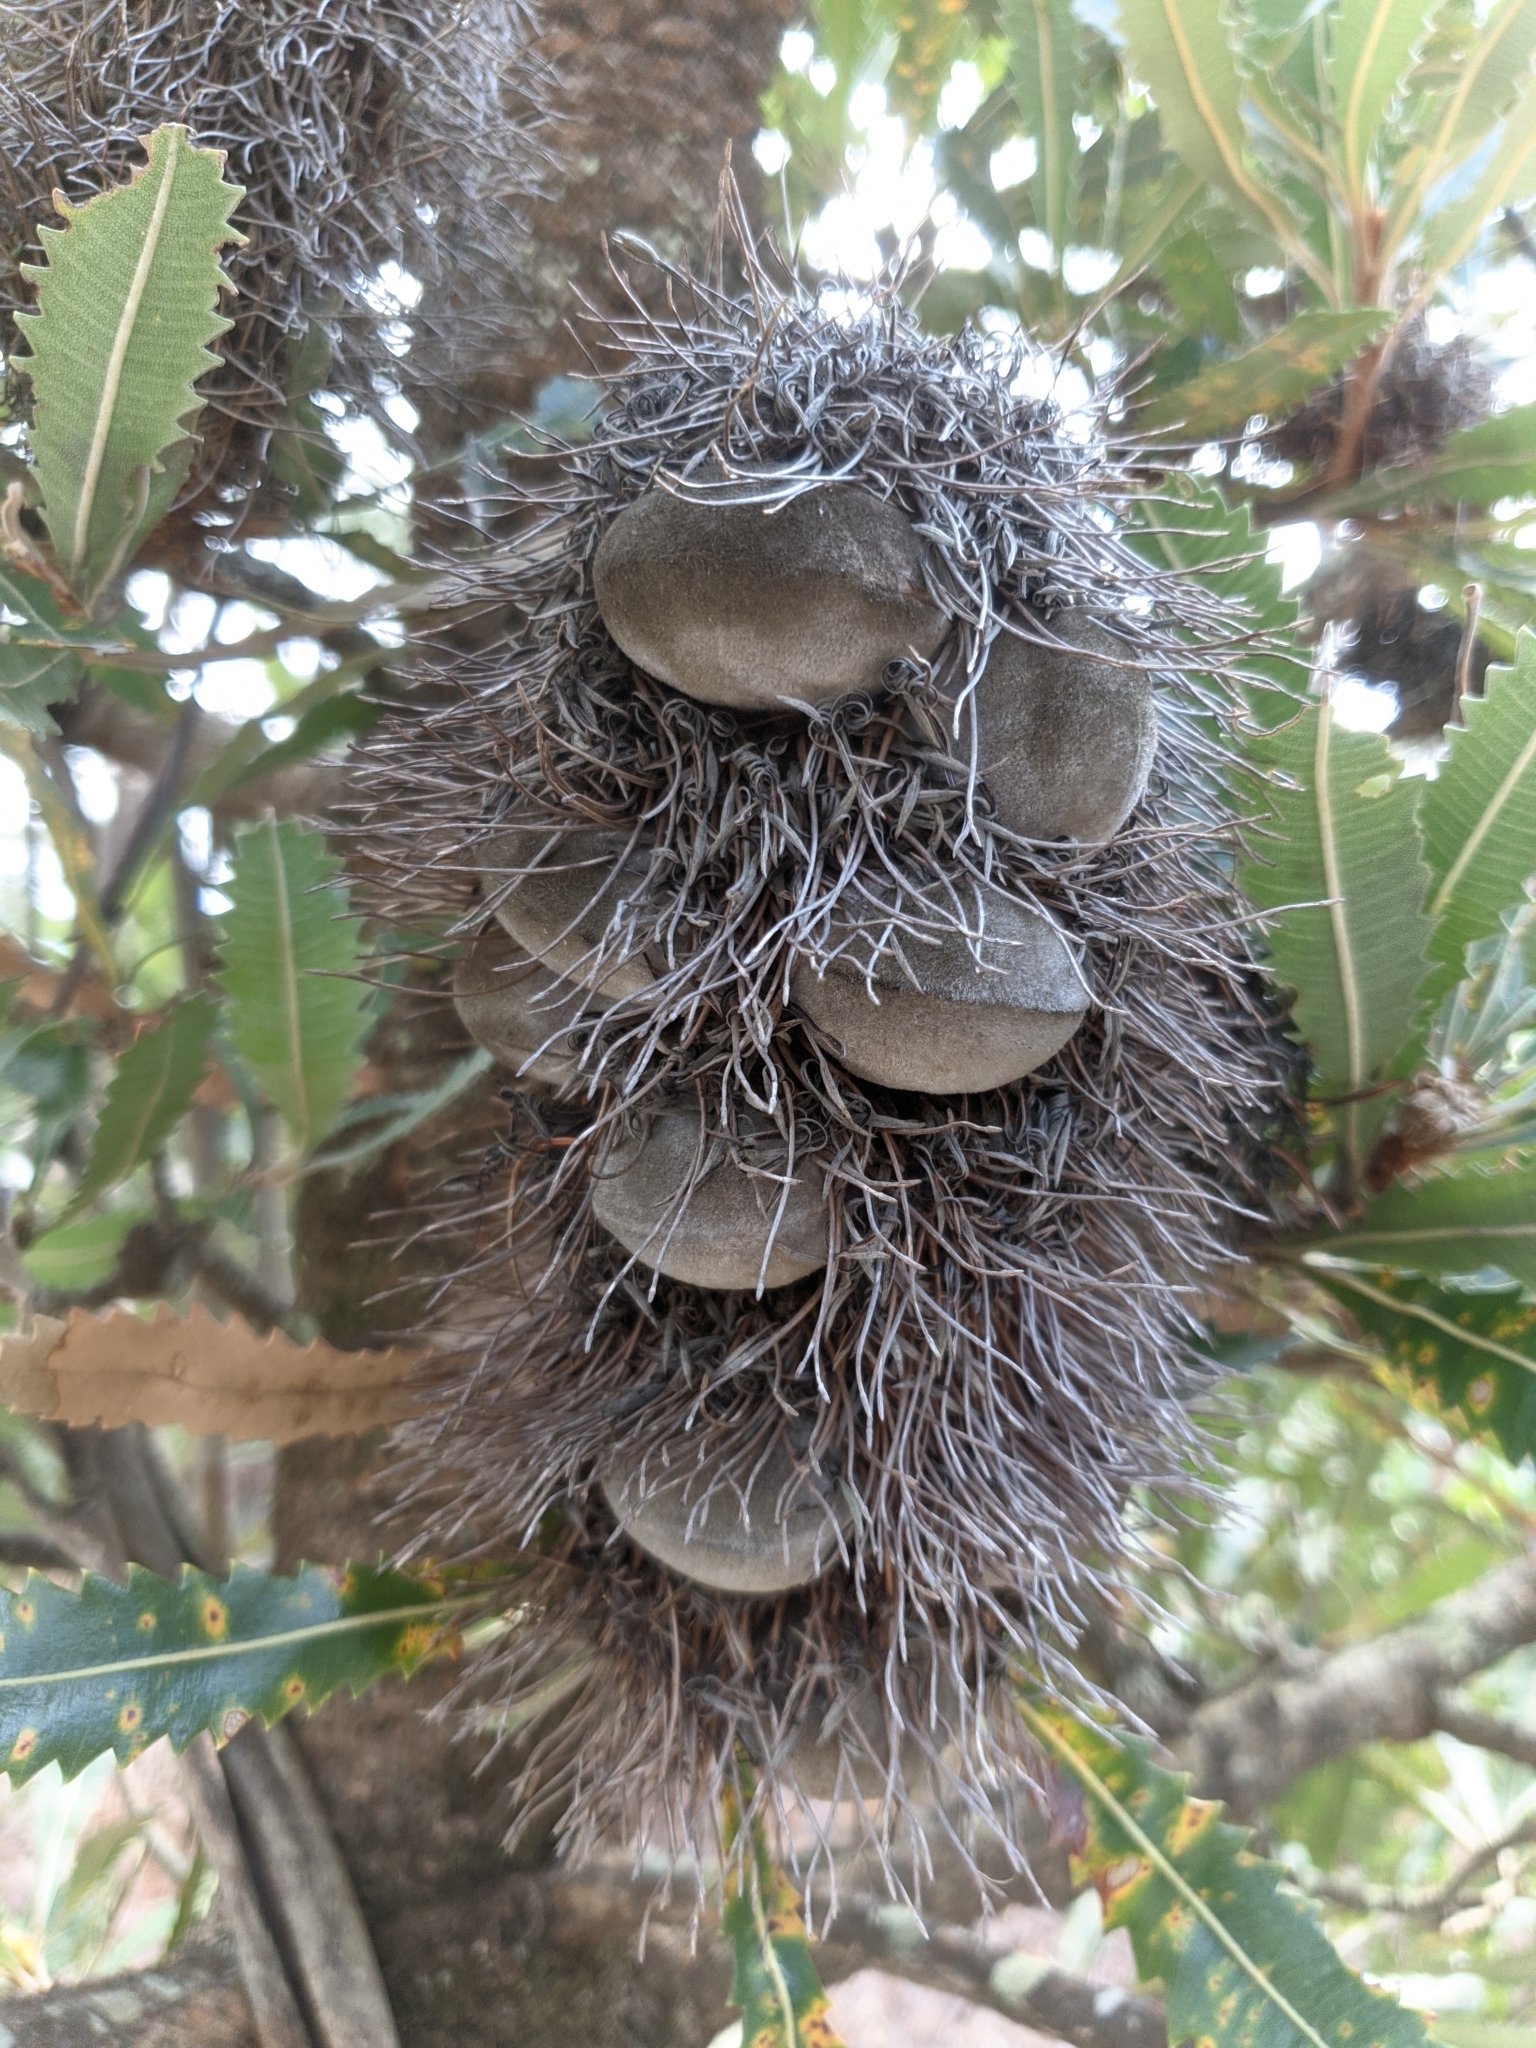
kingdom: Plantae
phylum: Tracheophyta
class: Magnoliopsida
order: Proteales
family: Proteaceae
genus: Banksia
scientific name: Banksia serrata
